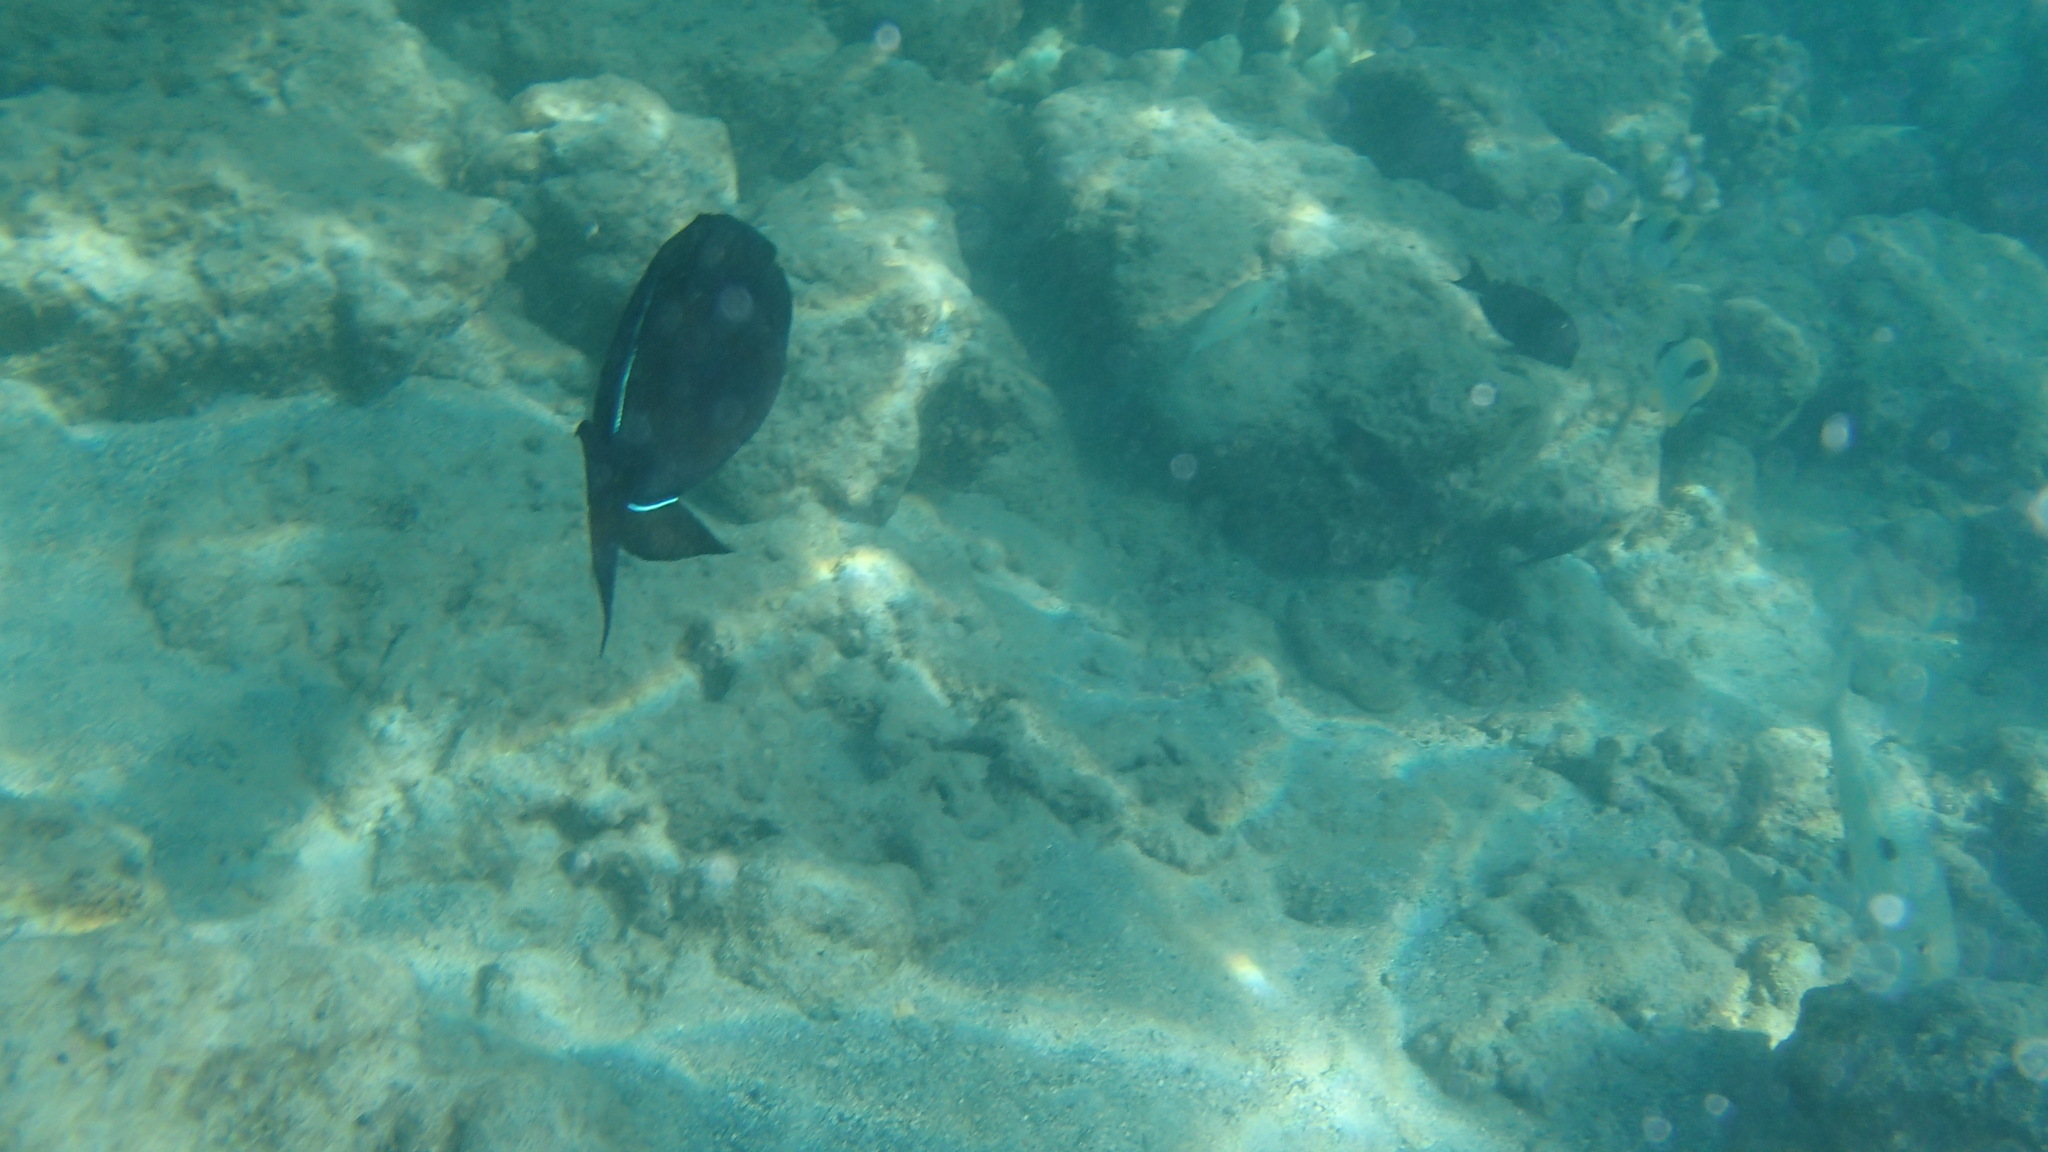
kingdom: Animalia
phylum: Chordata
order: Tetraodontiformes
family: Balistidae
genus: Melichthys
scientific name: Melichthys niger
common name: Black durgon
